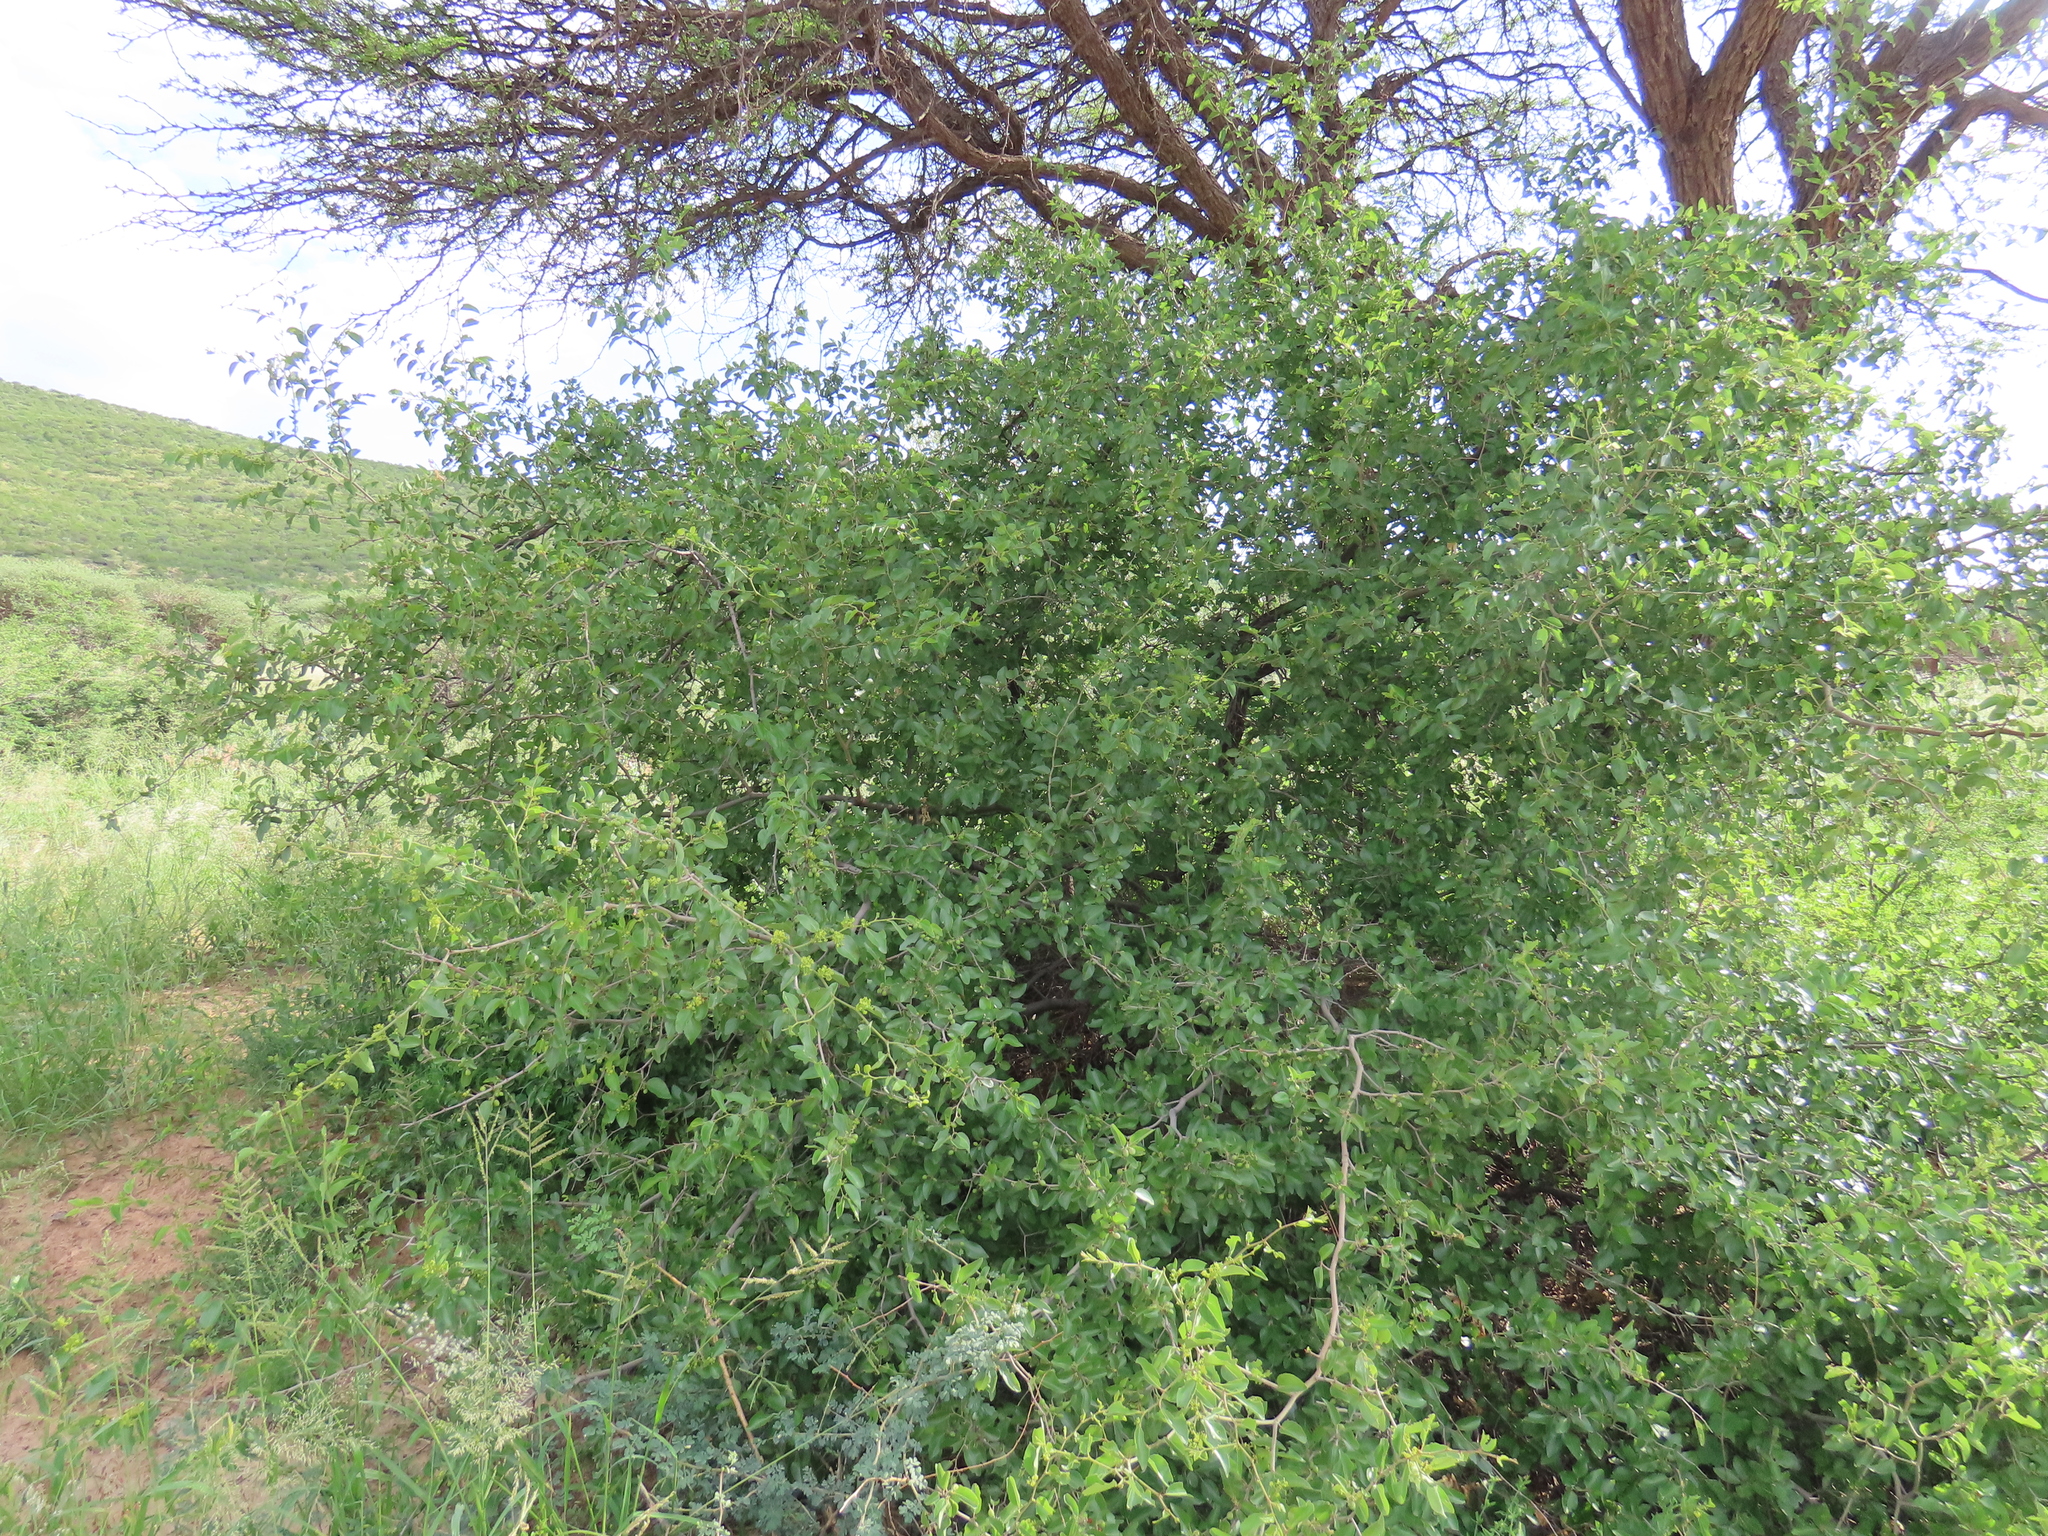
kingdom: Plantae
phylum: Tracheophyta
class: Magnoliopsida
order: Rosales
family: Rhamnaceae
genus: Ziziphus
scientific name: Ziziphus mucronata
